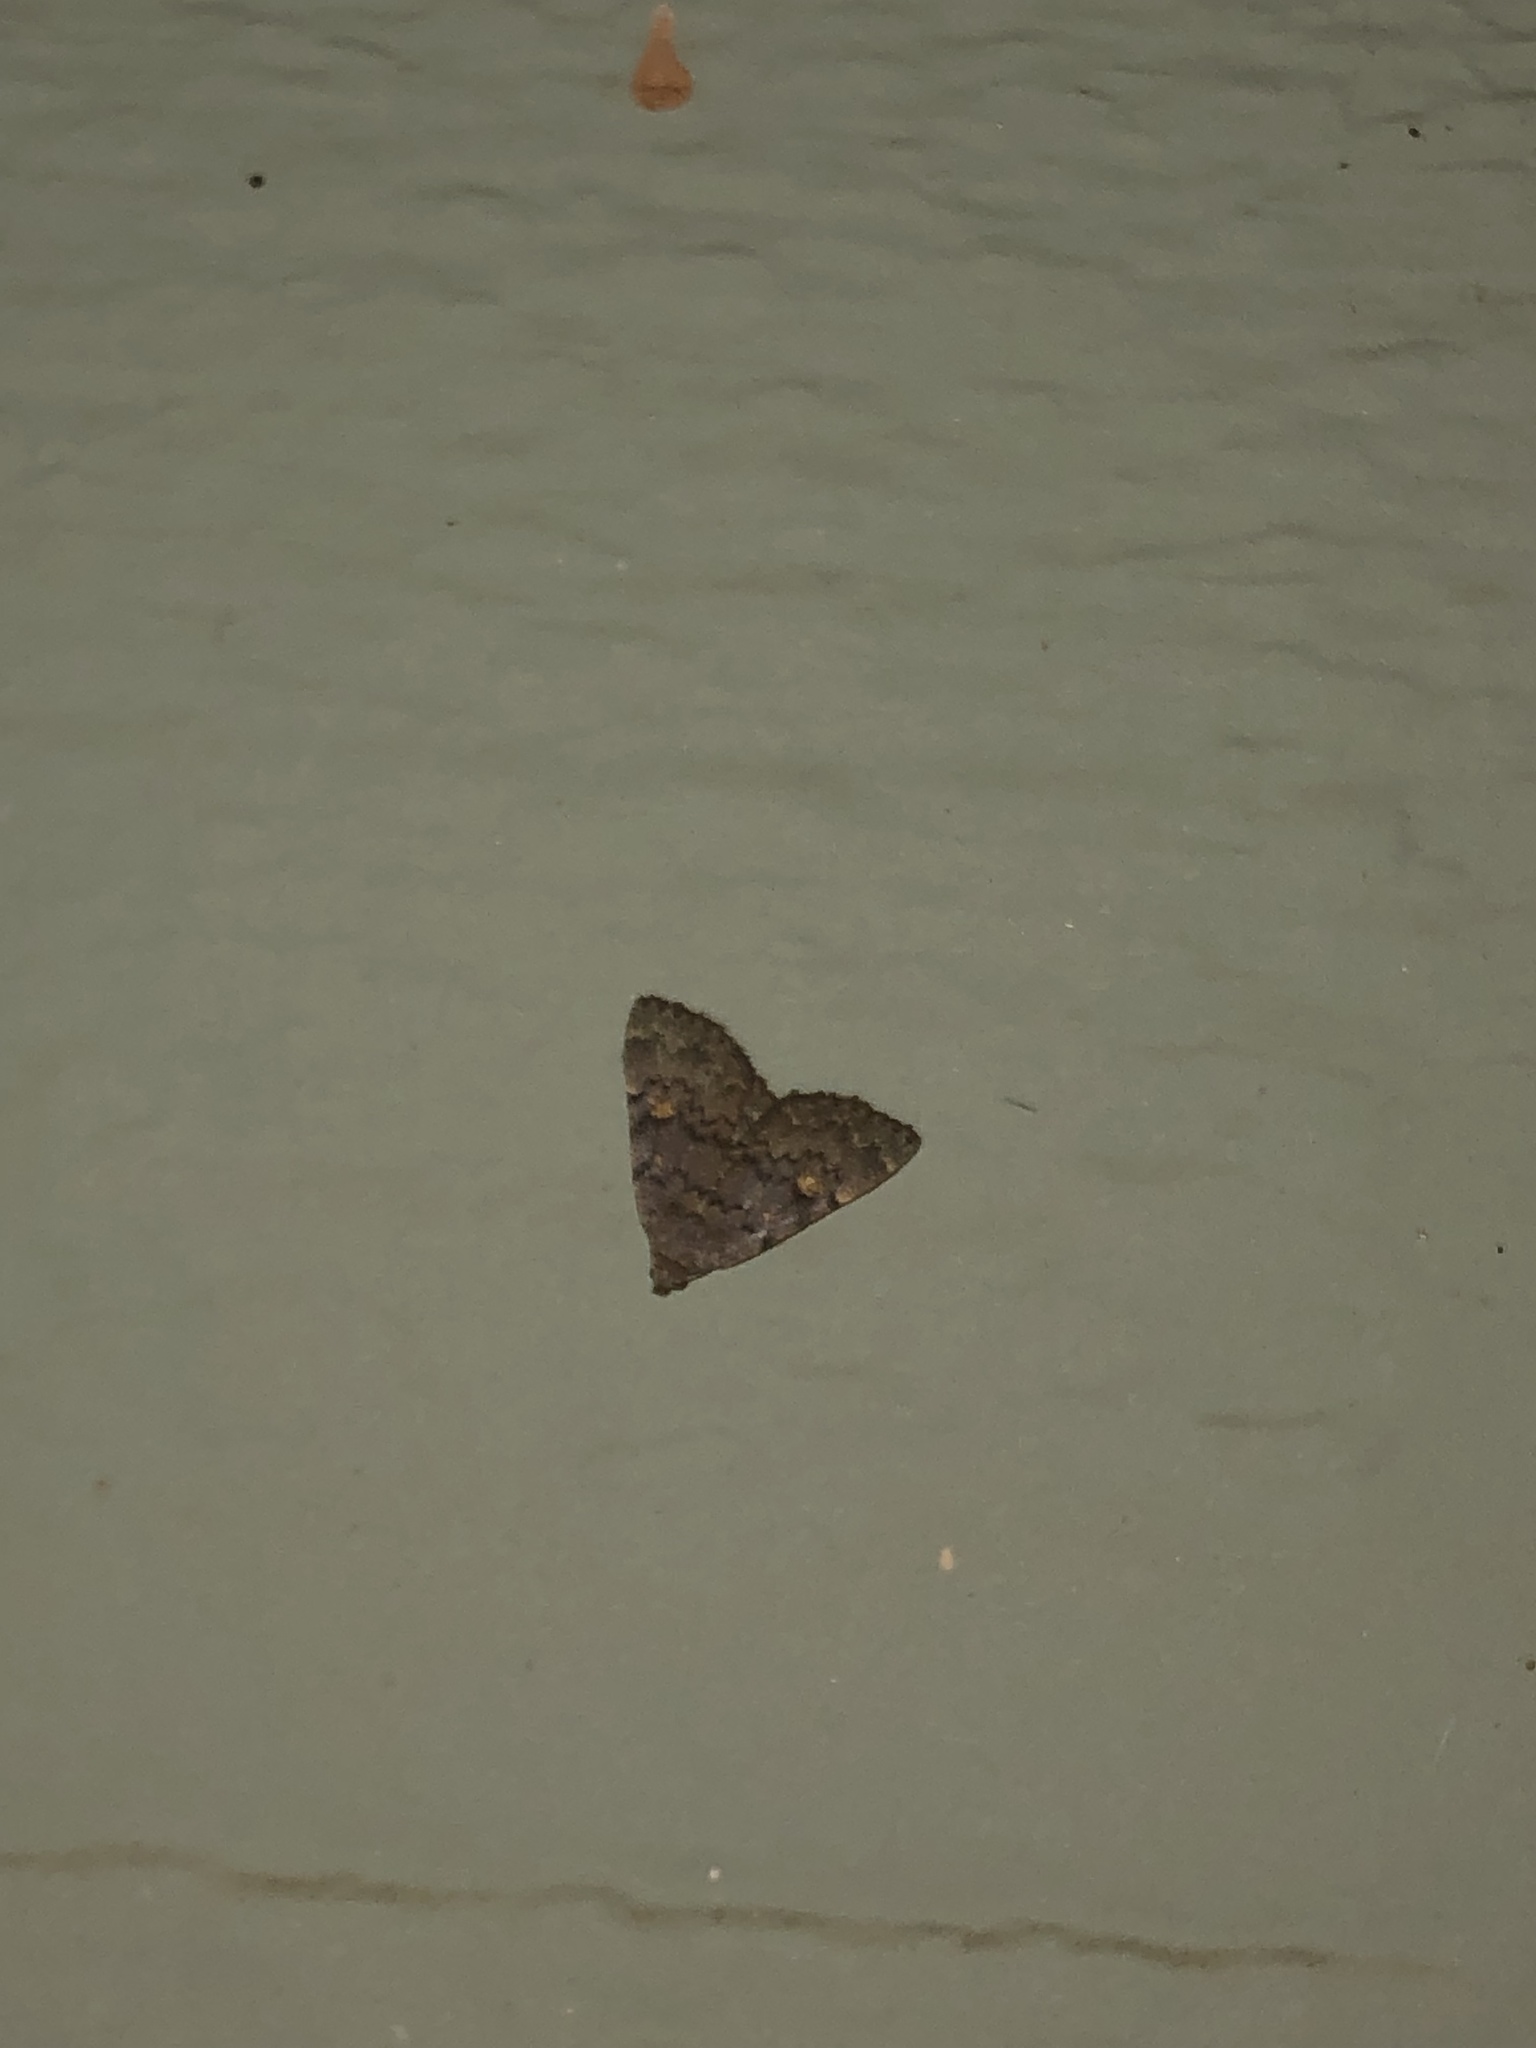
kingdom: Animalia
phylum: Arthropoda
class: Insecta
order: Lepidoptera
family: Erebidae
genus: Idia
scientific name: Idia aemula
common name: Common idia moth
